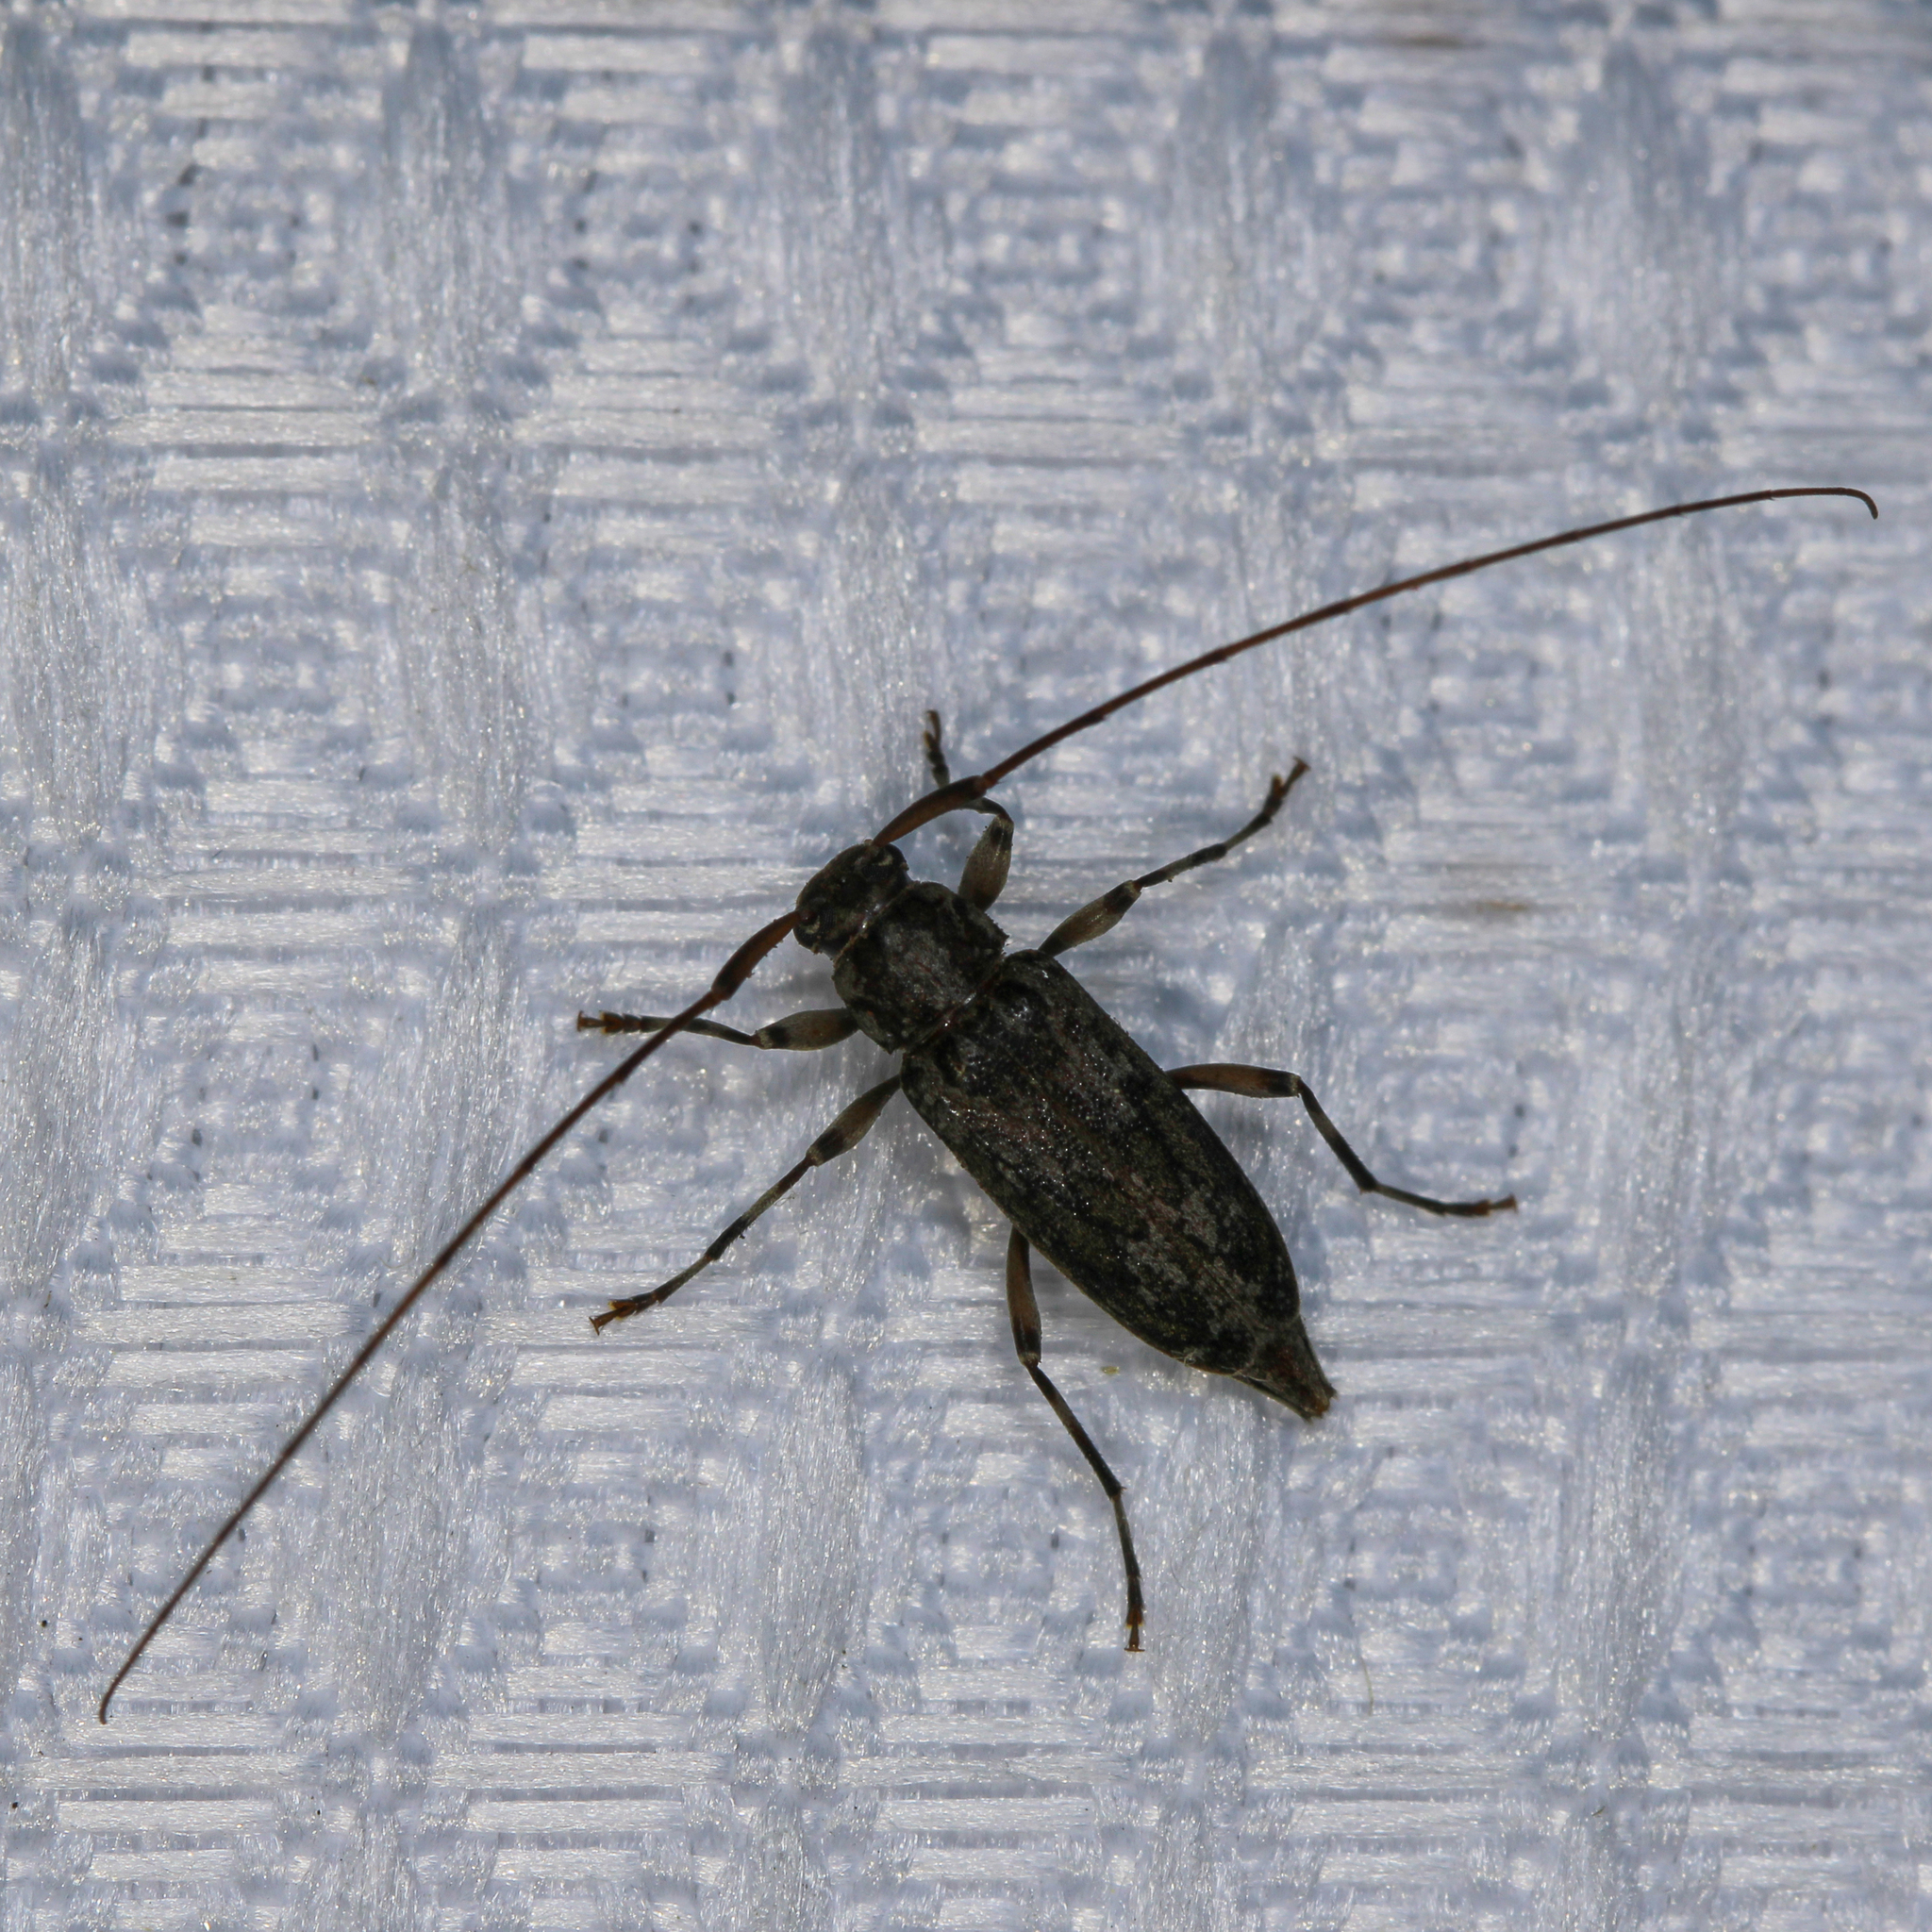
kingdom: Animalia
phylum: Arthropoda
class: Insecta
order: Coleoptera
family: Cerambycidae
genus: Lepturges
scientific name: Lepturges confluens
